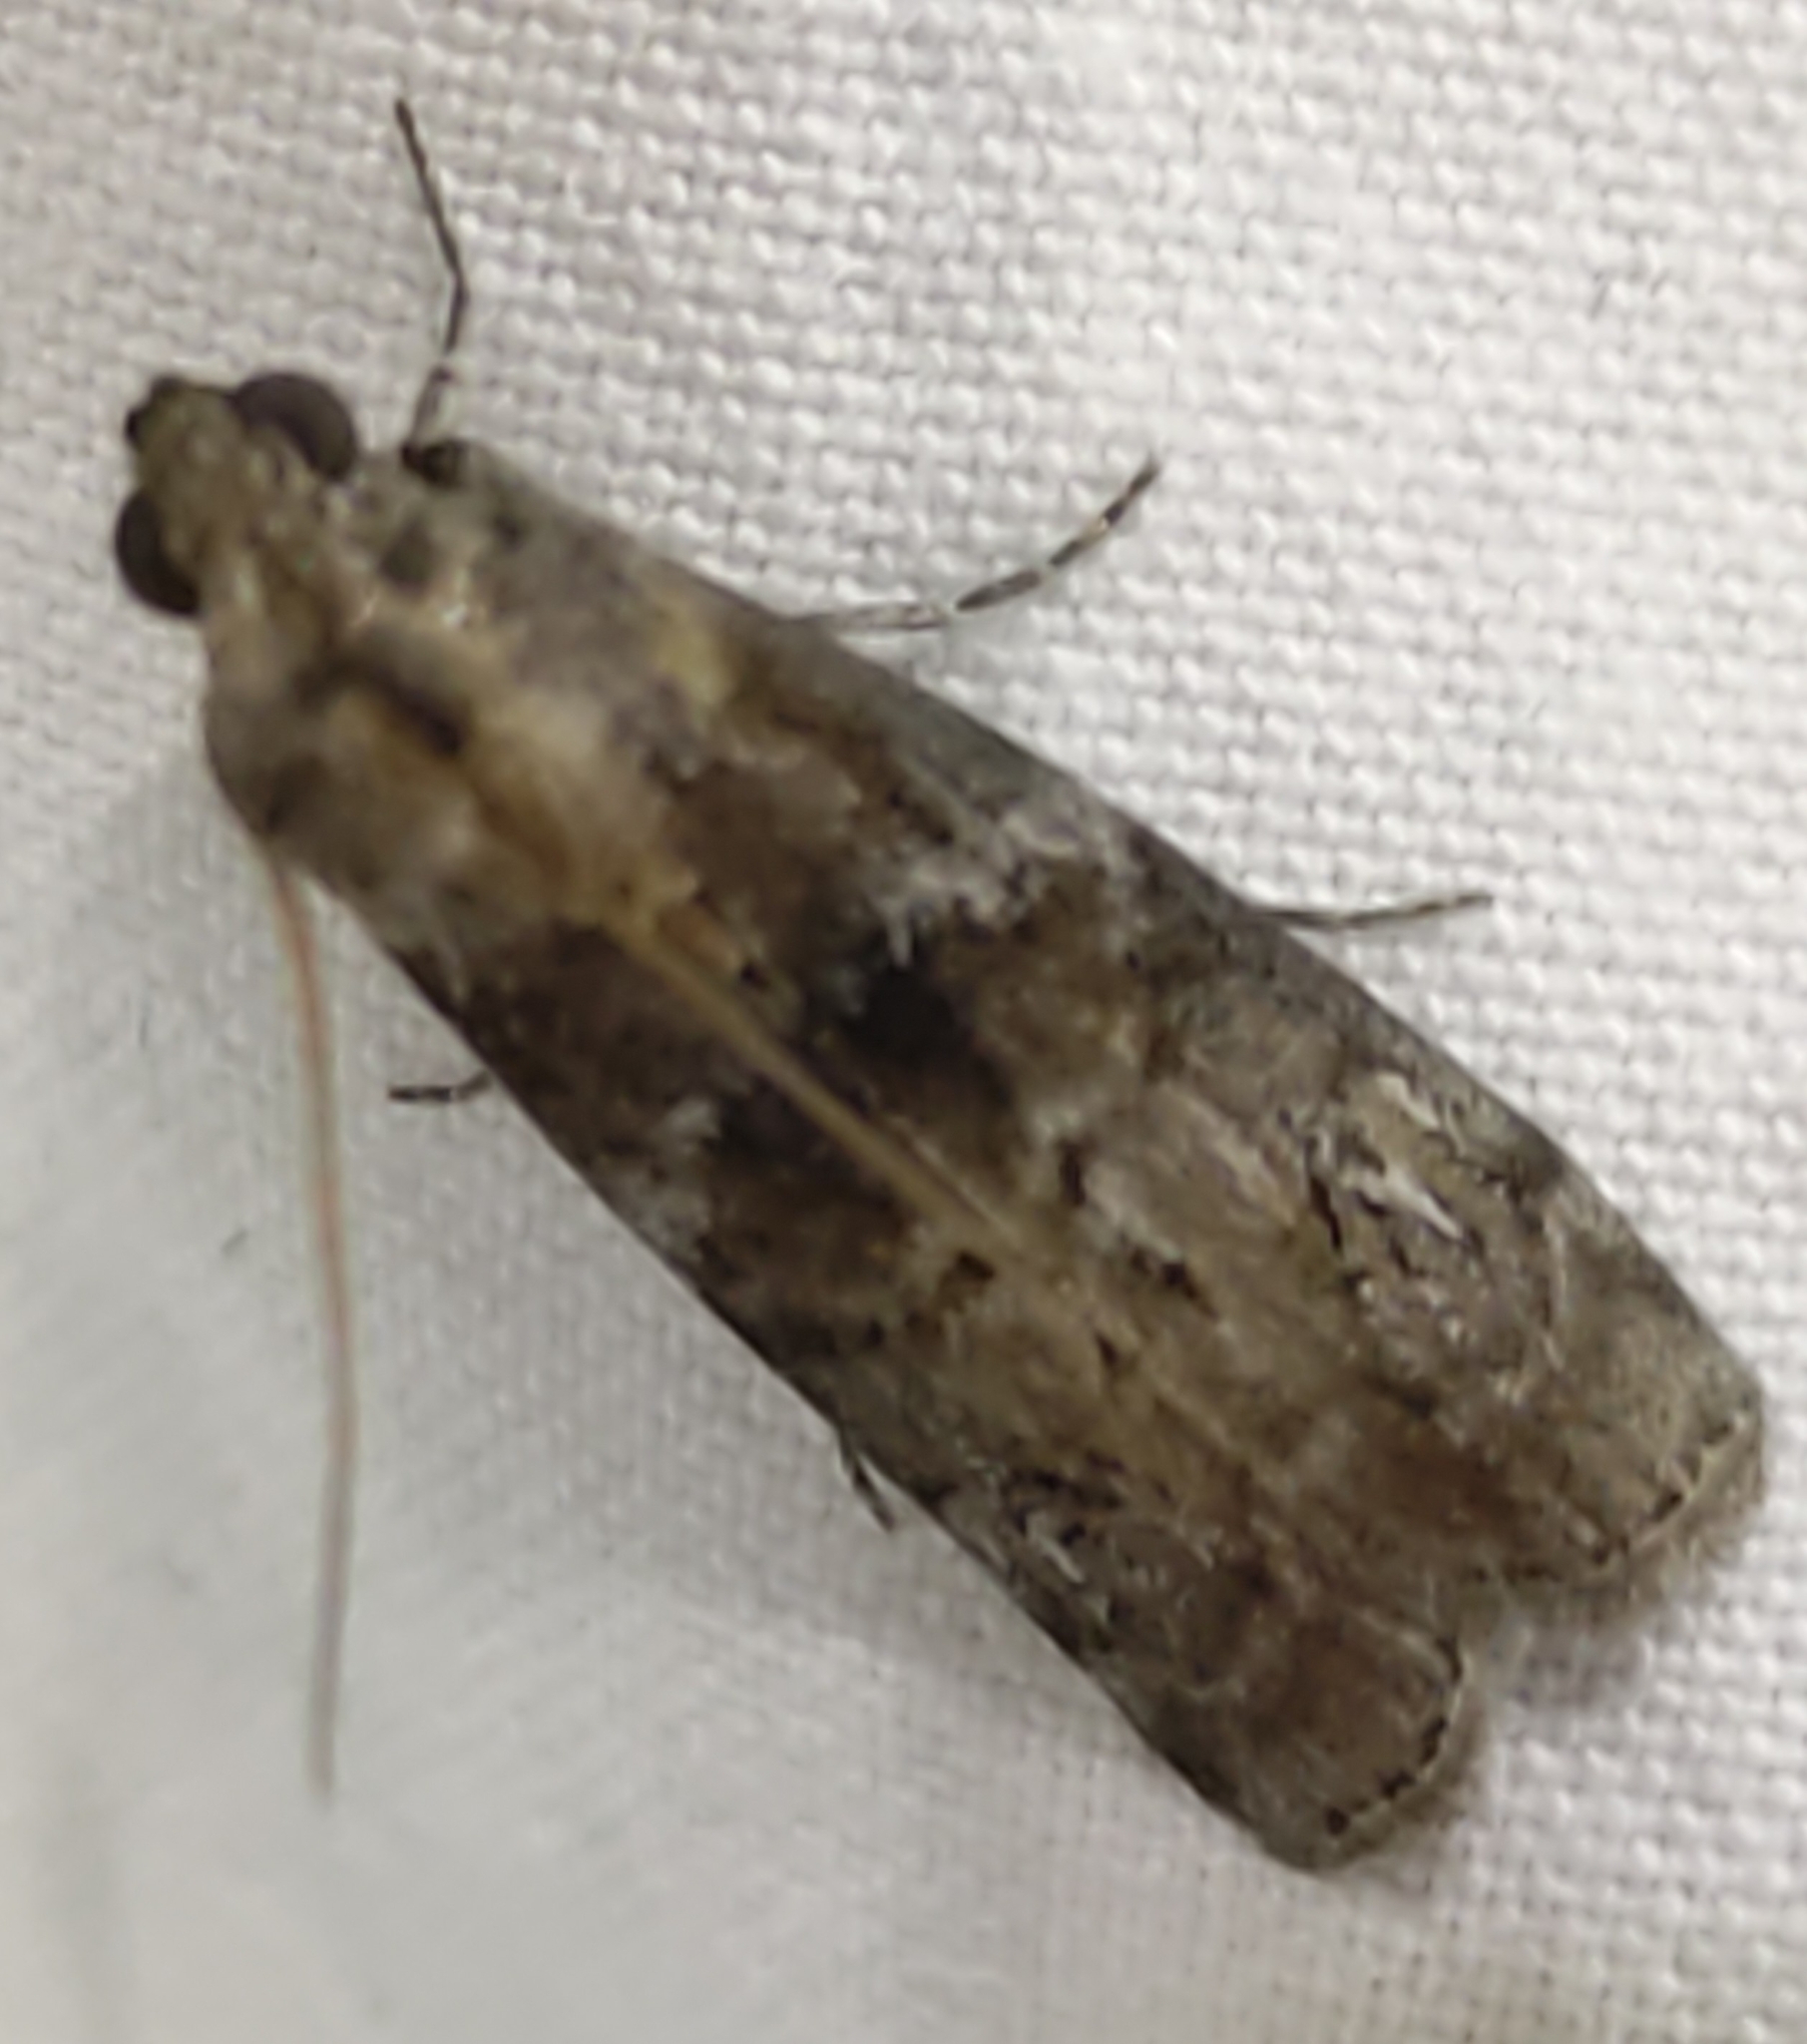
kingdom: Animalia
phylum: Arthropoda
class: Insecta
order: Lepidoptera
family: Pyralidae
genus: Phycita
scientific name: Phycita roborella
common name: Dotted oak knot-horn
